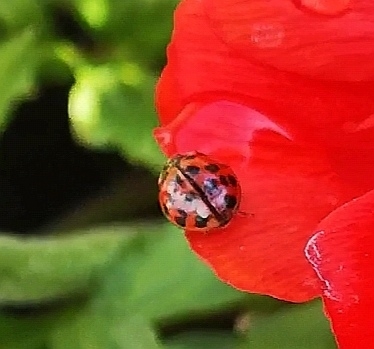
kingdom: Animalia
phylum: Arthropoda
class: Insecta
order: Coleoptera
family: Coccinellidae
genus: Harmonia
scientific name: Harmonia axyridis
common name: Harlequin ladybird
